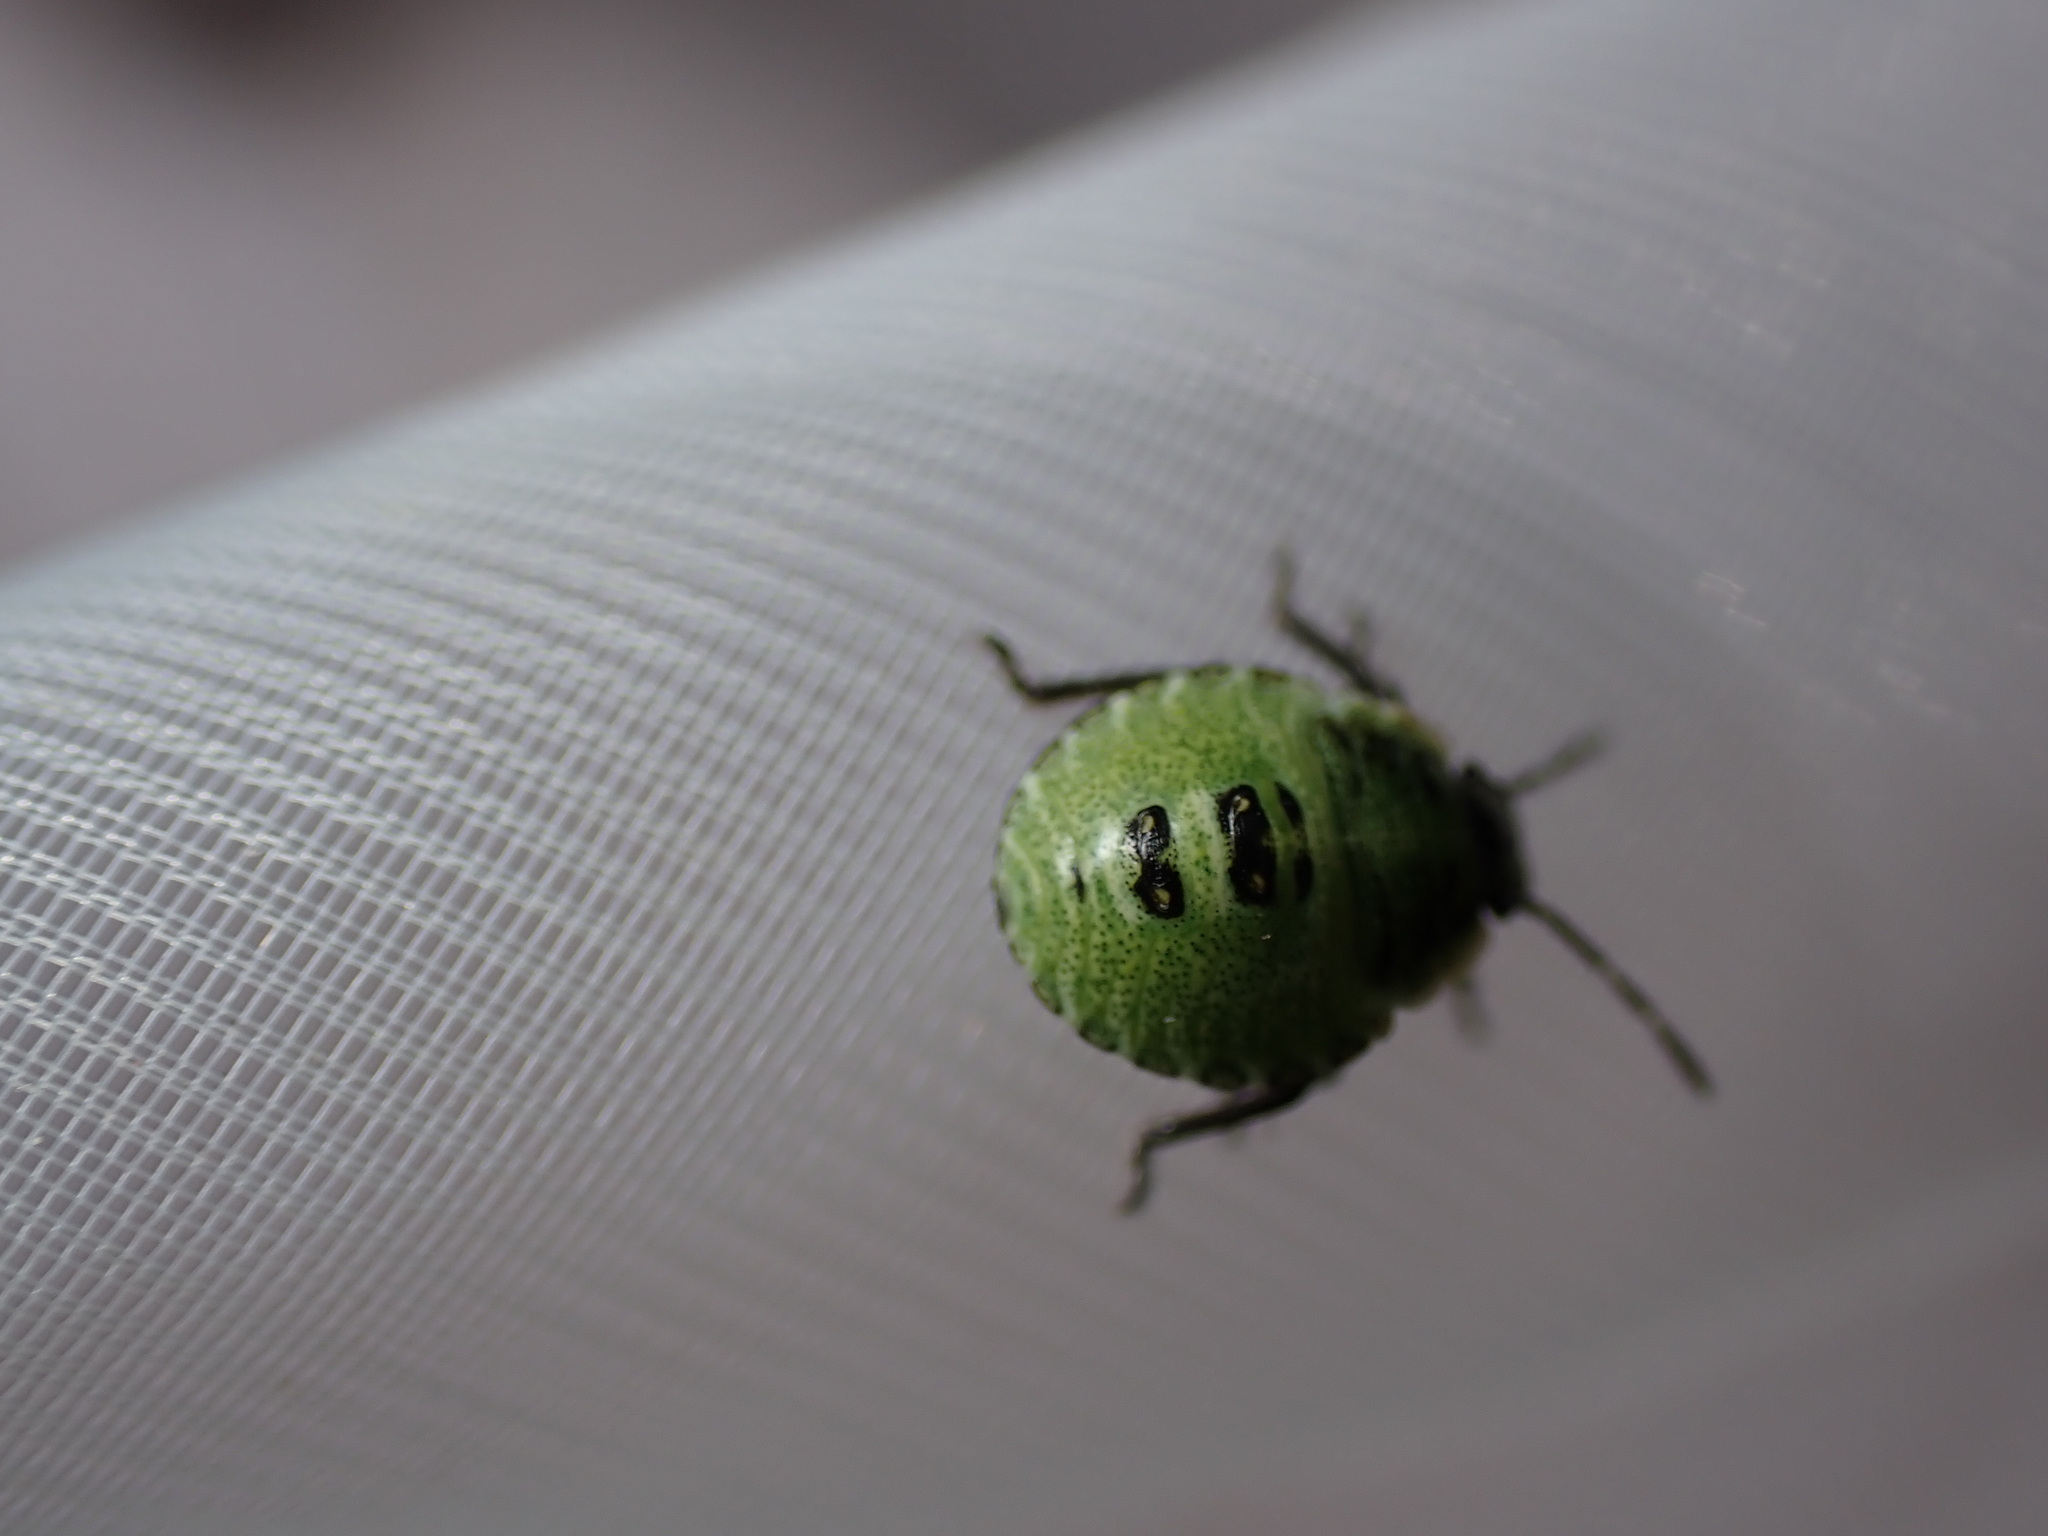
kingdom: Animalia
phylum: Arthropoda
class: Insecta
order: Hemiptera
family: Pentatomidae
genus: Palomena
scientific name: Palomena prasina
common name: Green shieldbug
